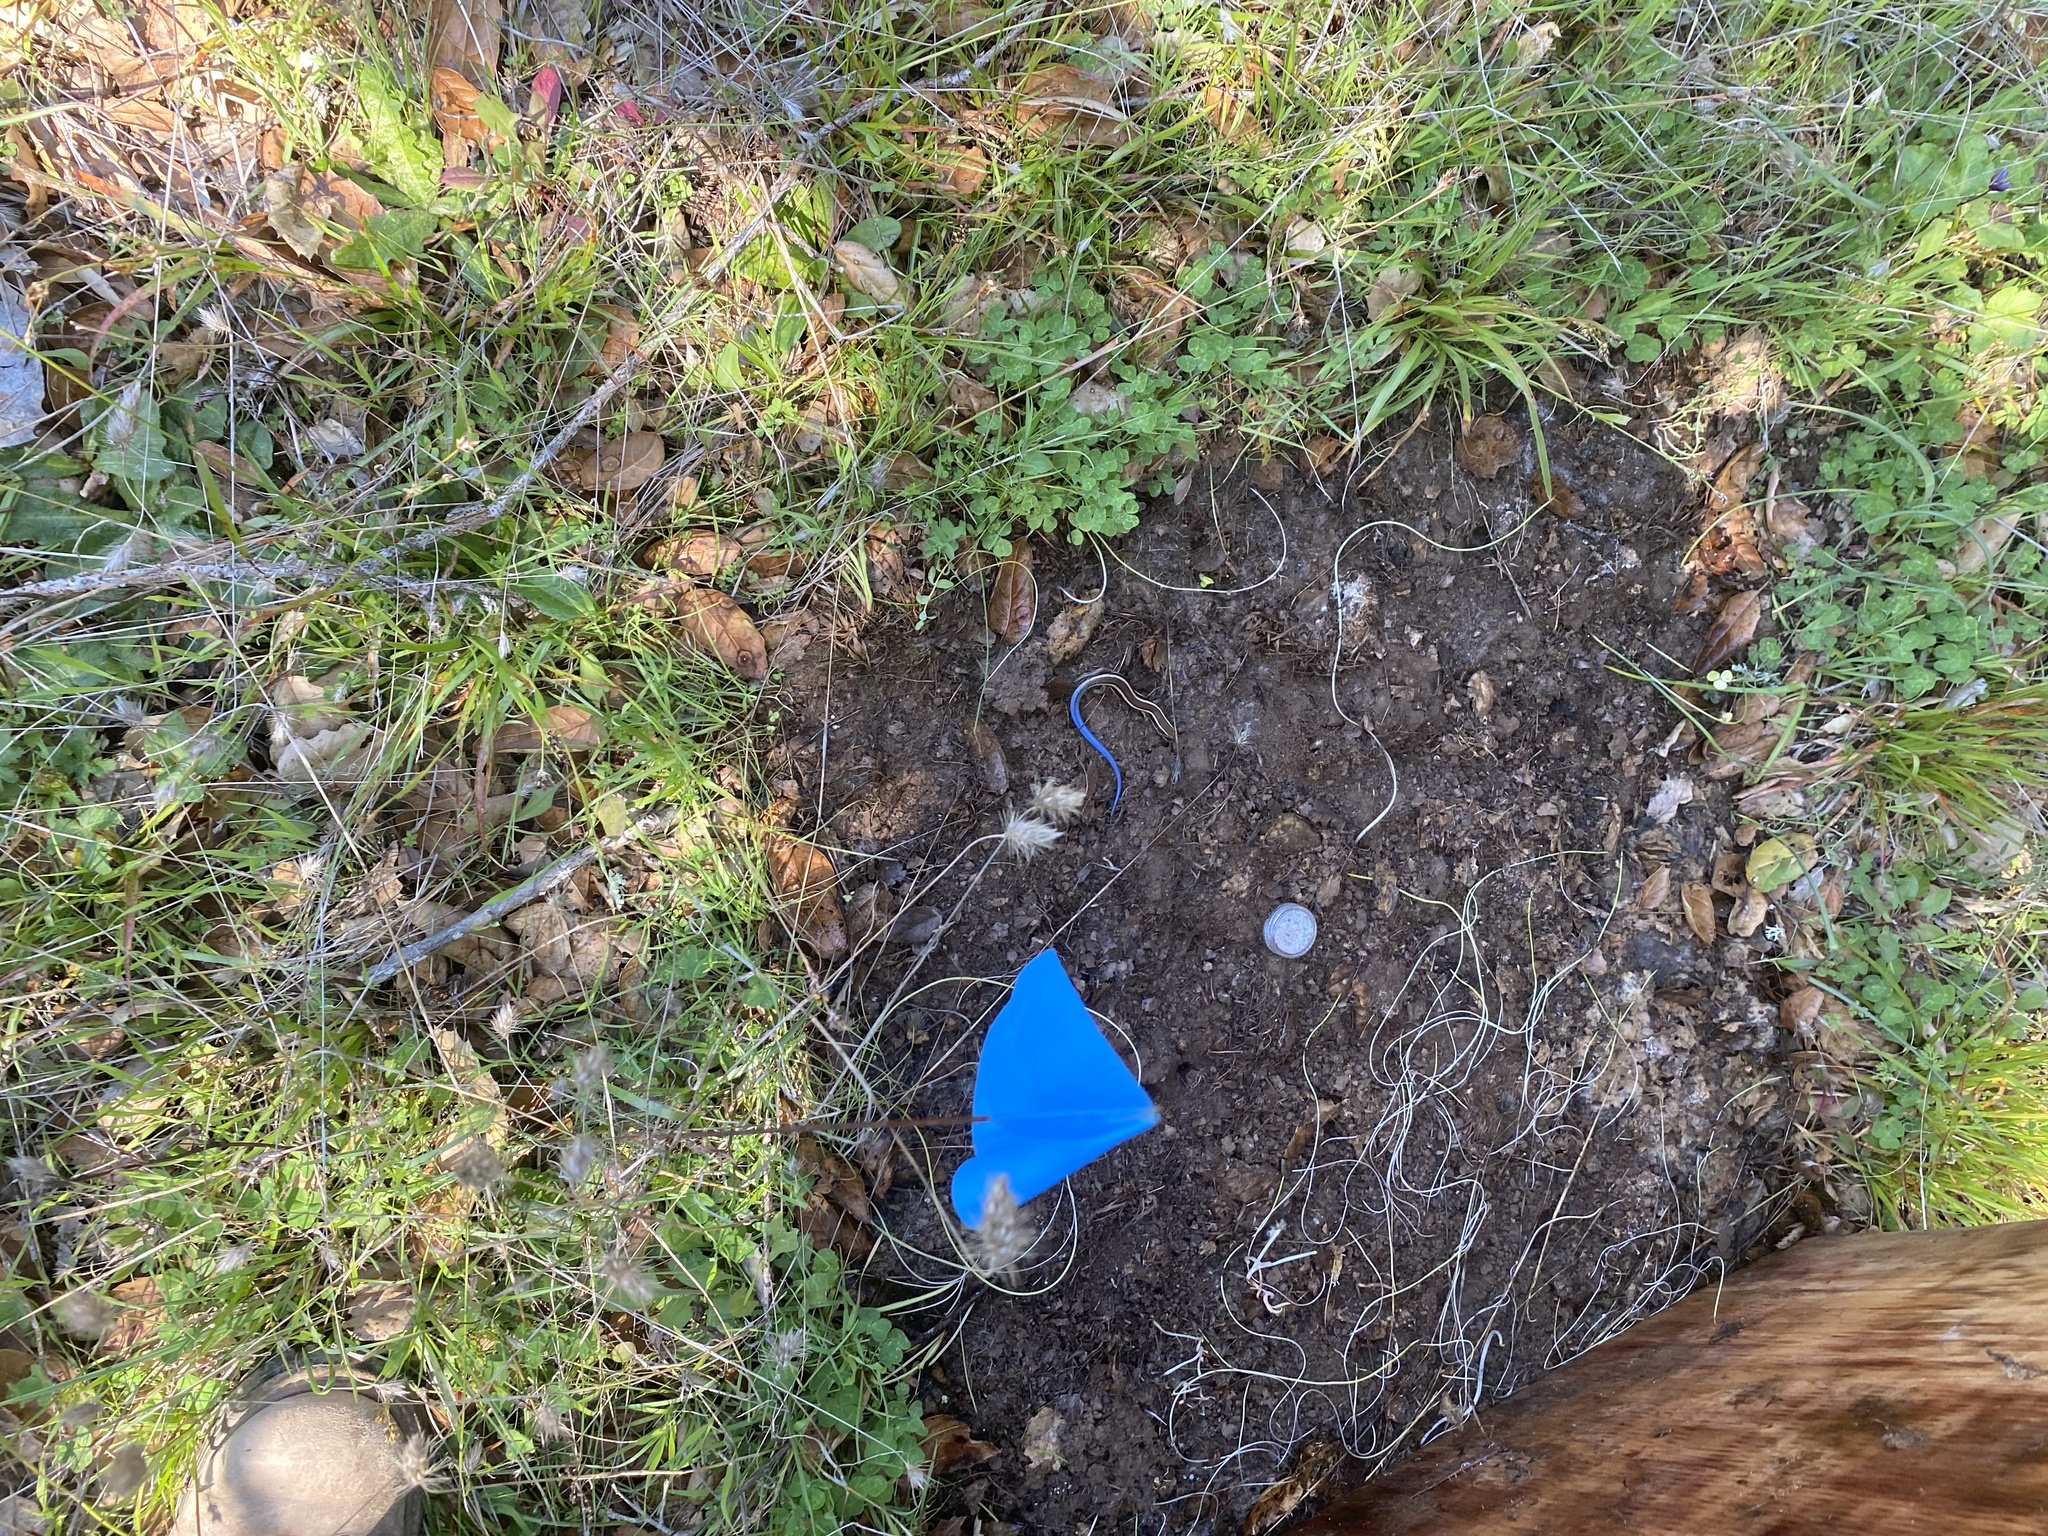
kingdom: Animalia
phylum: Chordata
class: Squamata
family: Scincidae
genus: Plestiodon
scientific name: Plestiodon skiltonianus
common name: Coronado island skink [interparietalis]
